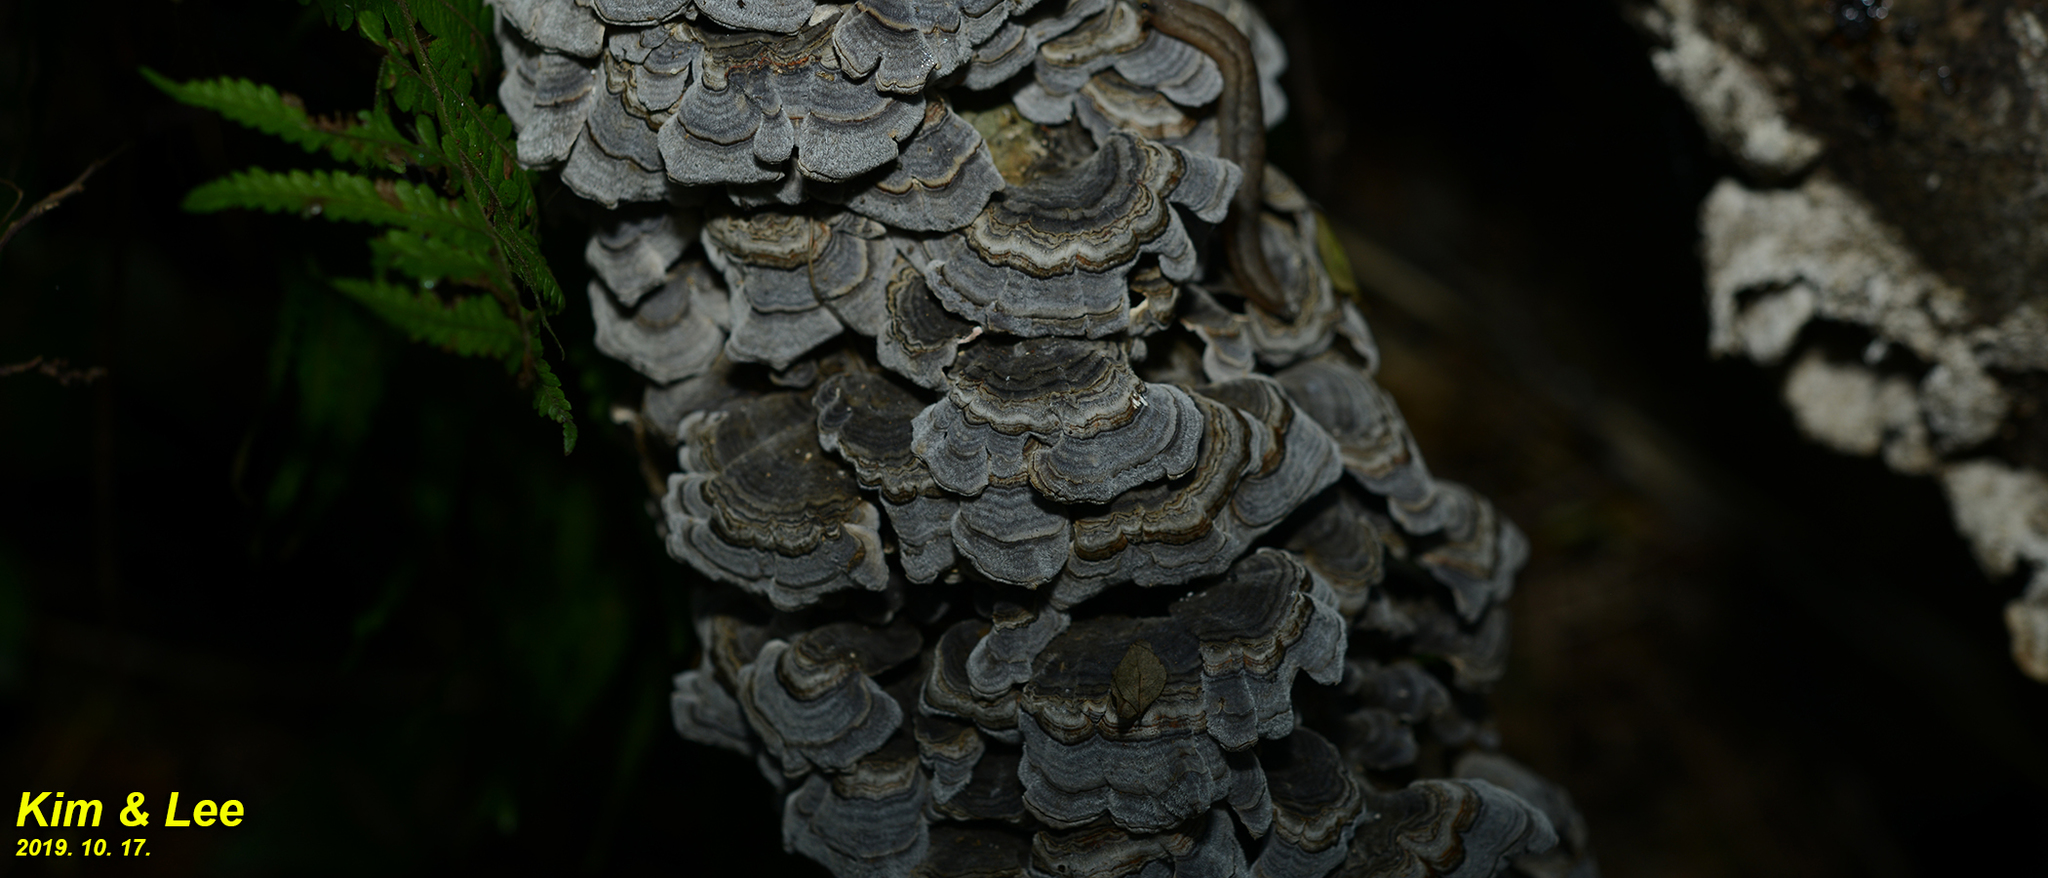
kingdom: Fungi
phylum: Basidiomycota
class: Agaricomycetes
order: Polyporales
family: Polyporaceae
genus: Trametes
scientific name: Trametes versicolor
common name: Turkeytail
